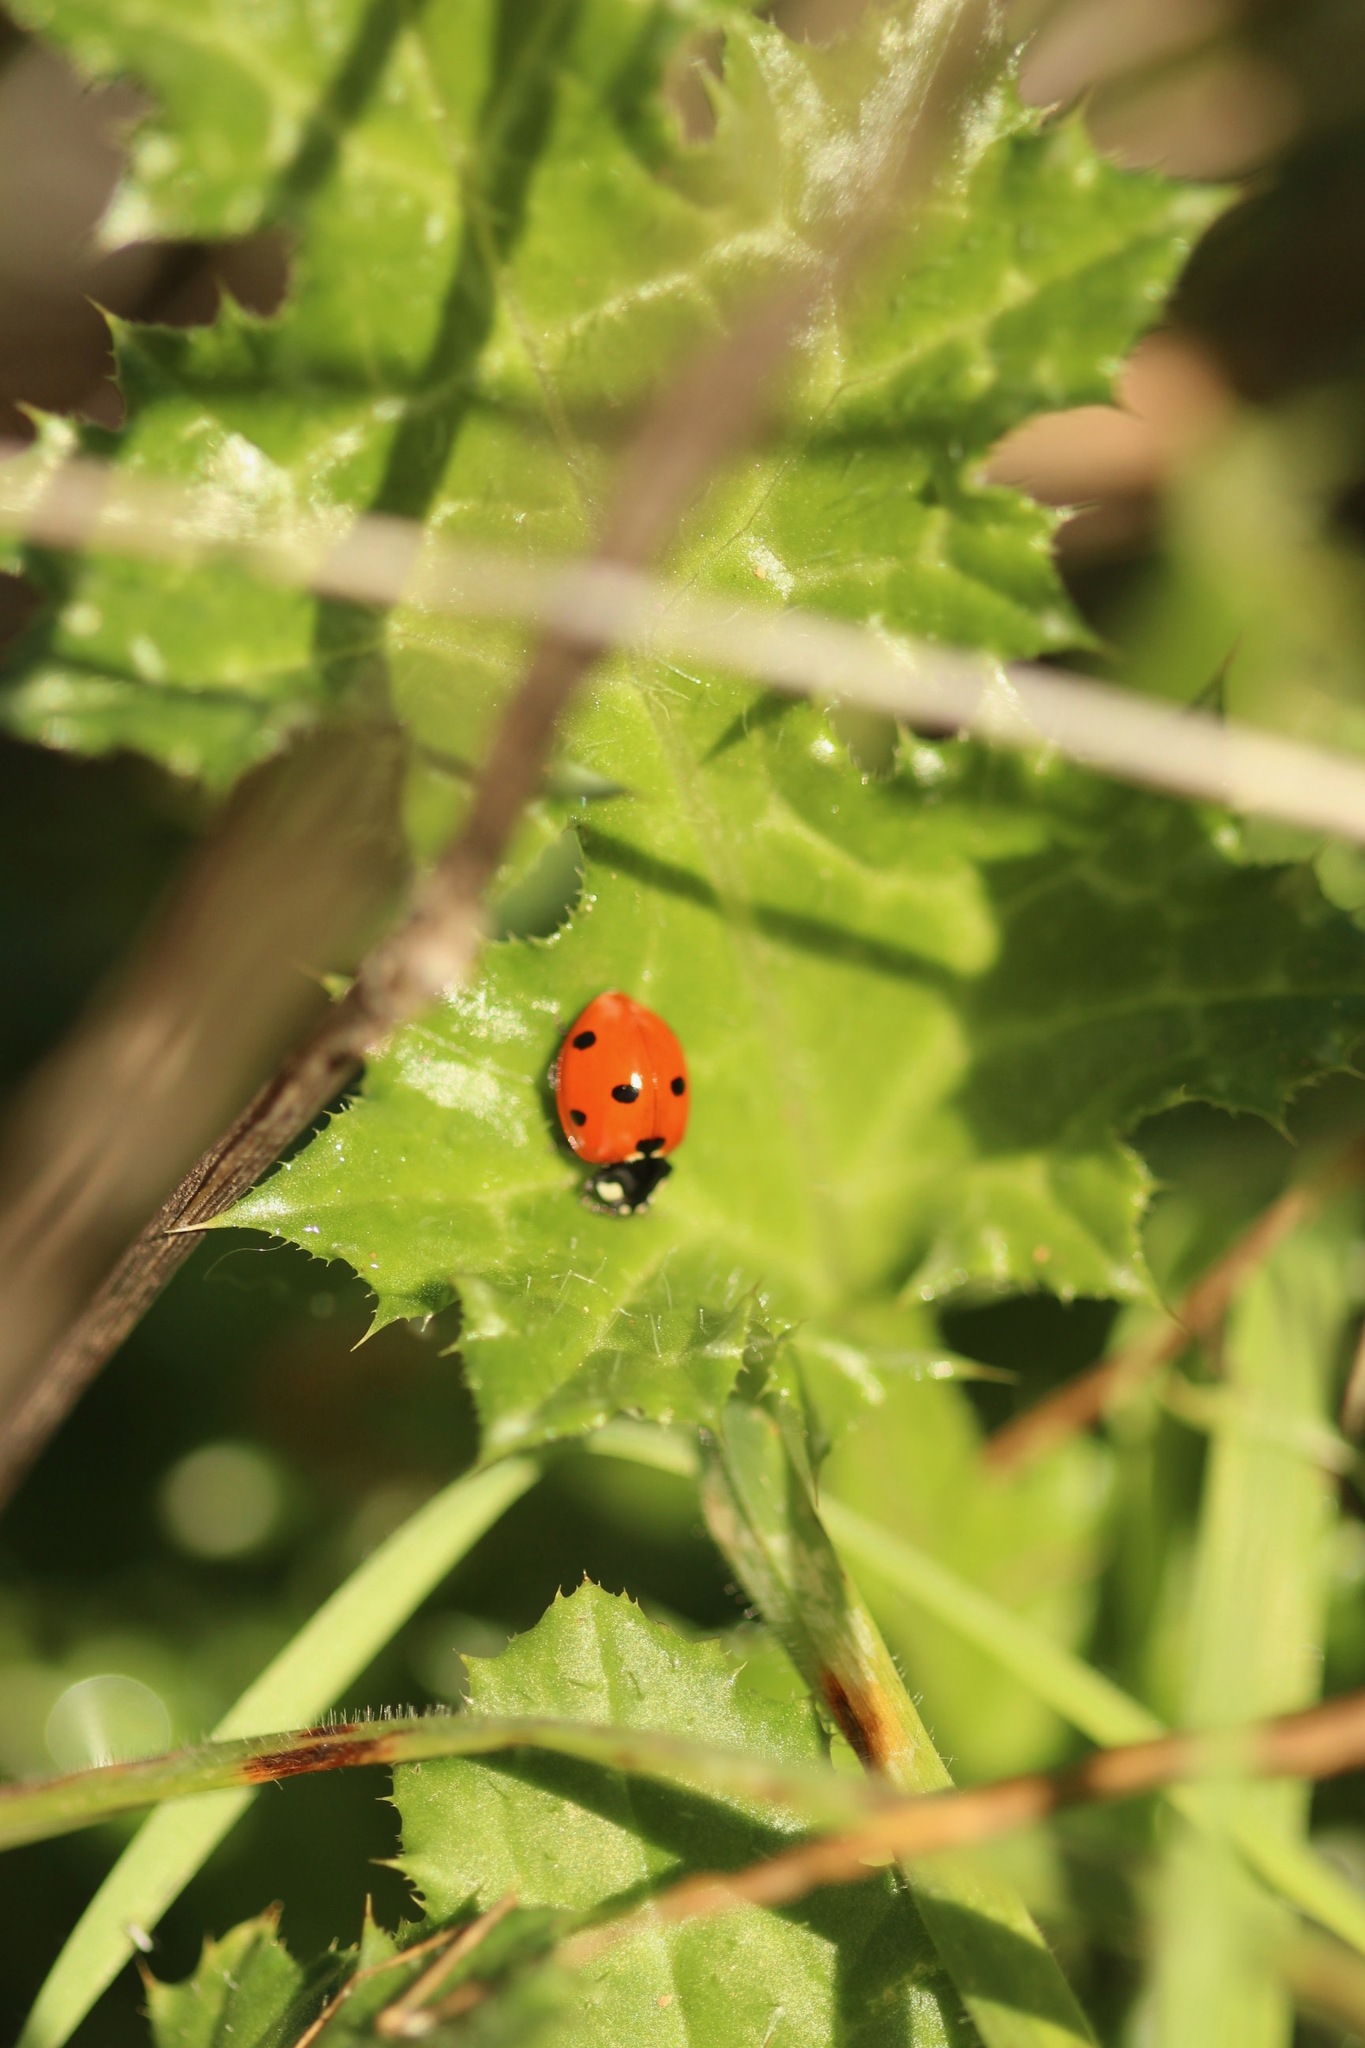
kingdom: Animalia
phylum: Arthropoda
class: Insecta
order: Coleoptera
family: Coccinellidae
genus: Coccinella
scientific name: Coccinella septempunctata
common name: Sevenspotted lady beetle
